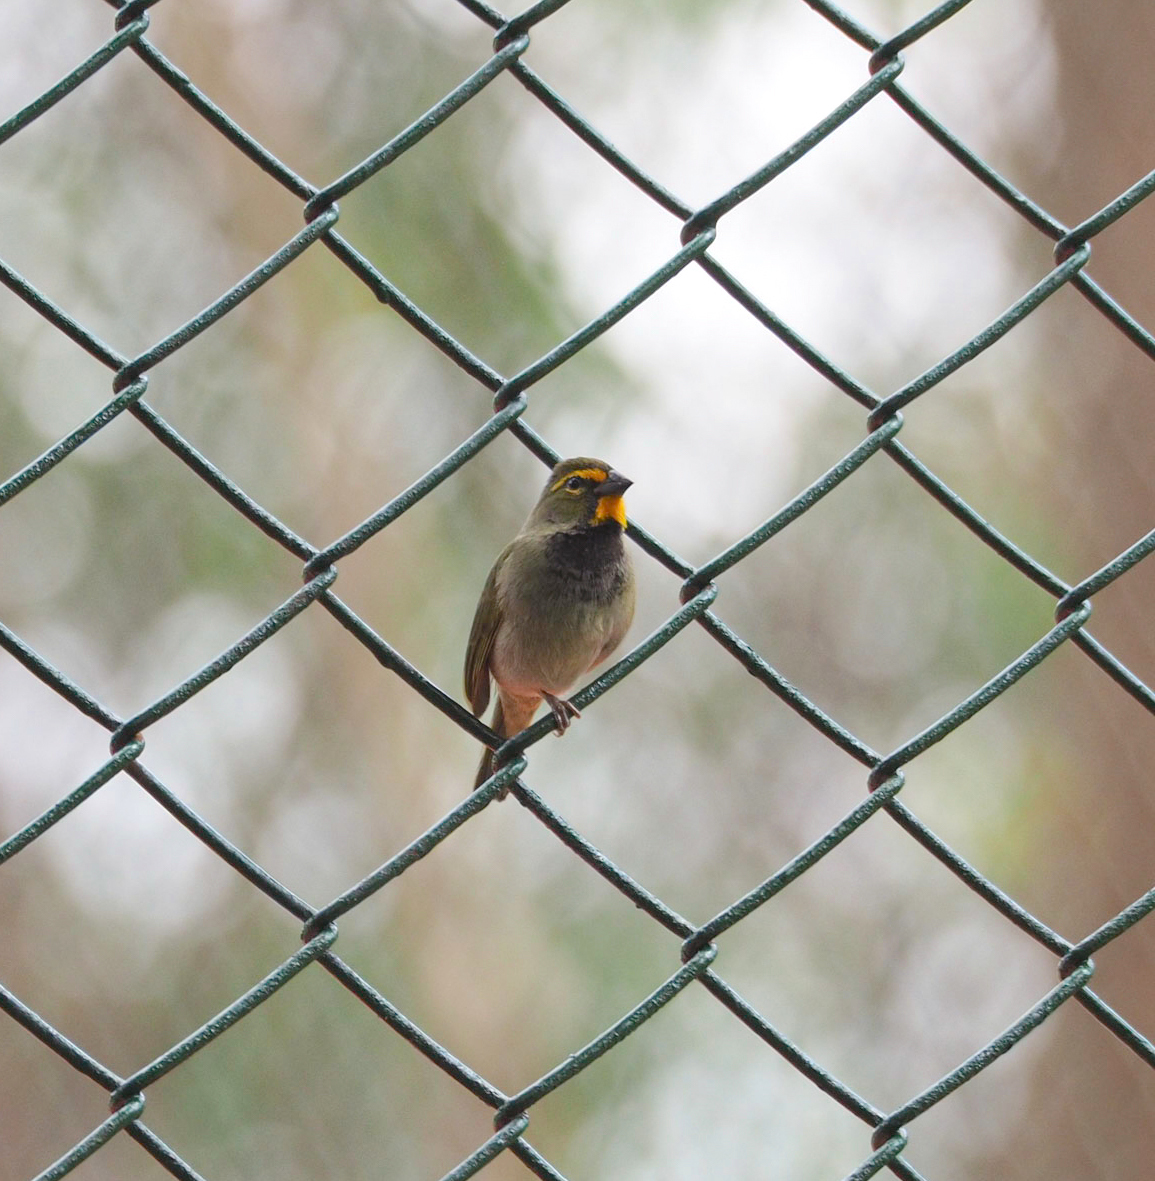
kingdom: Animalia
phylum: Chordata
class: Aves
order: Passeriformes
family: Thraupidae
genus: Tiaris
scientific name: Tiaris olivaceus
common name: Yellow-faced grassquit
